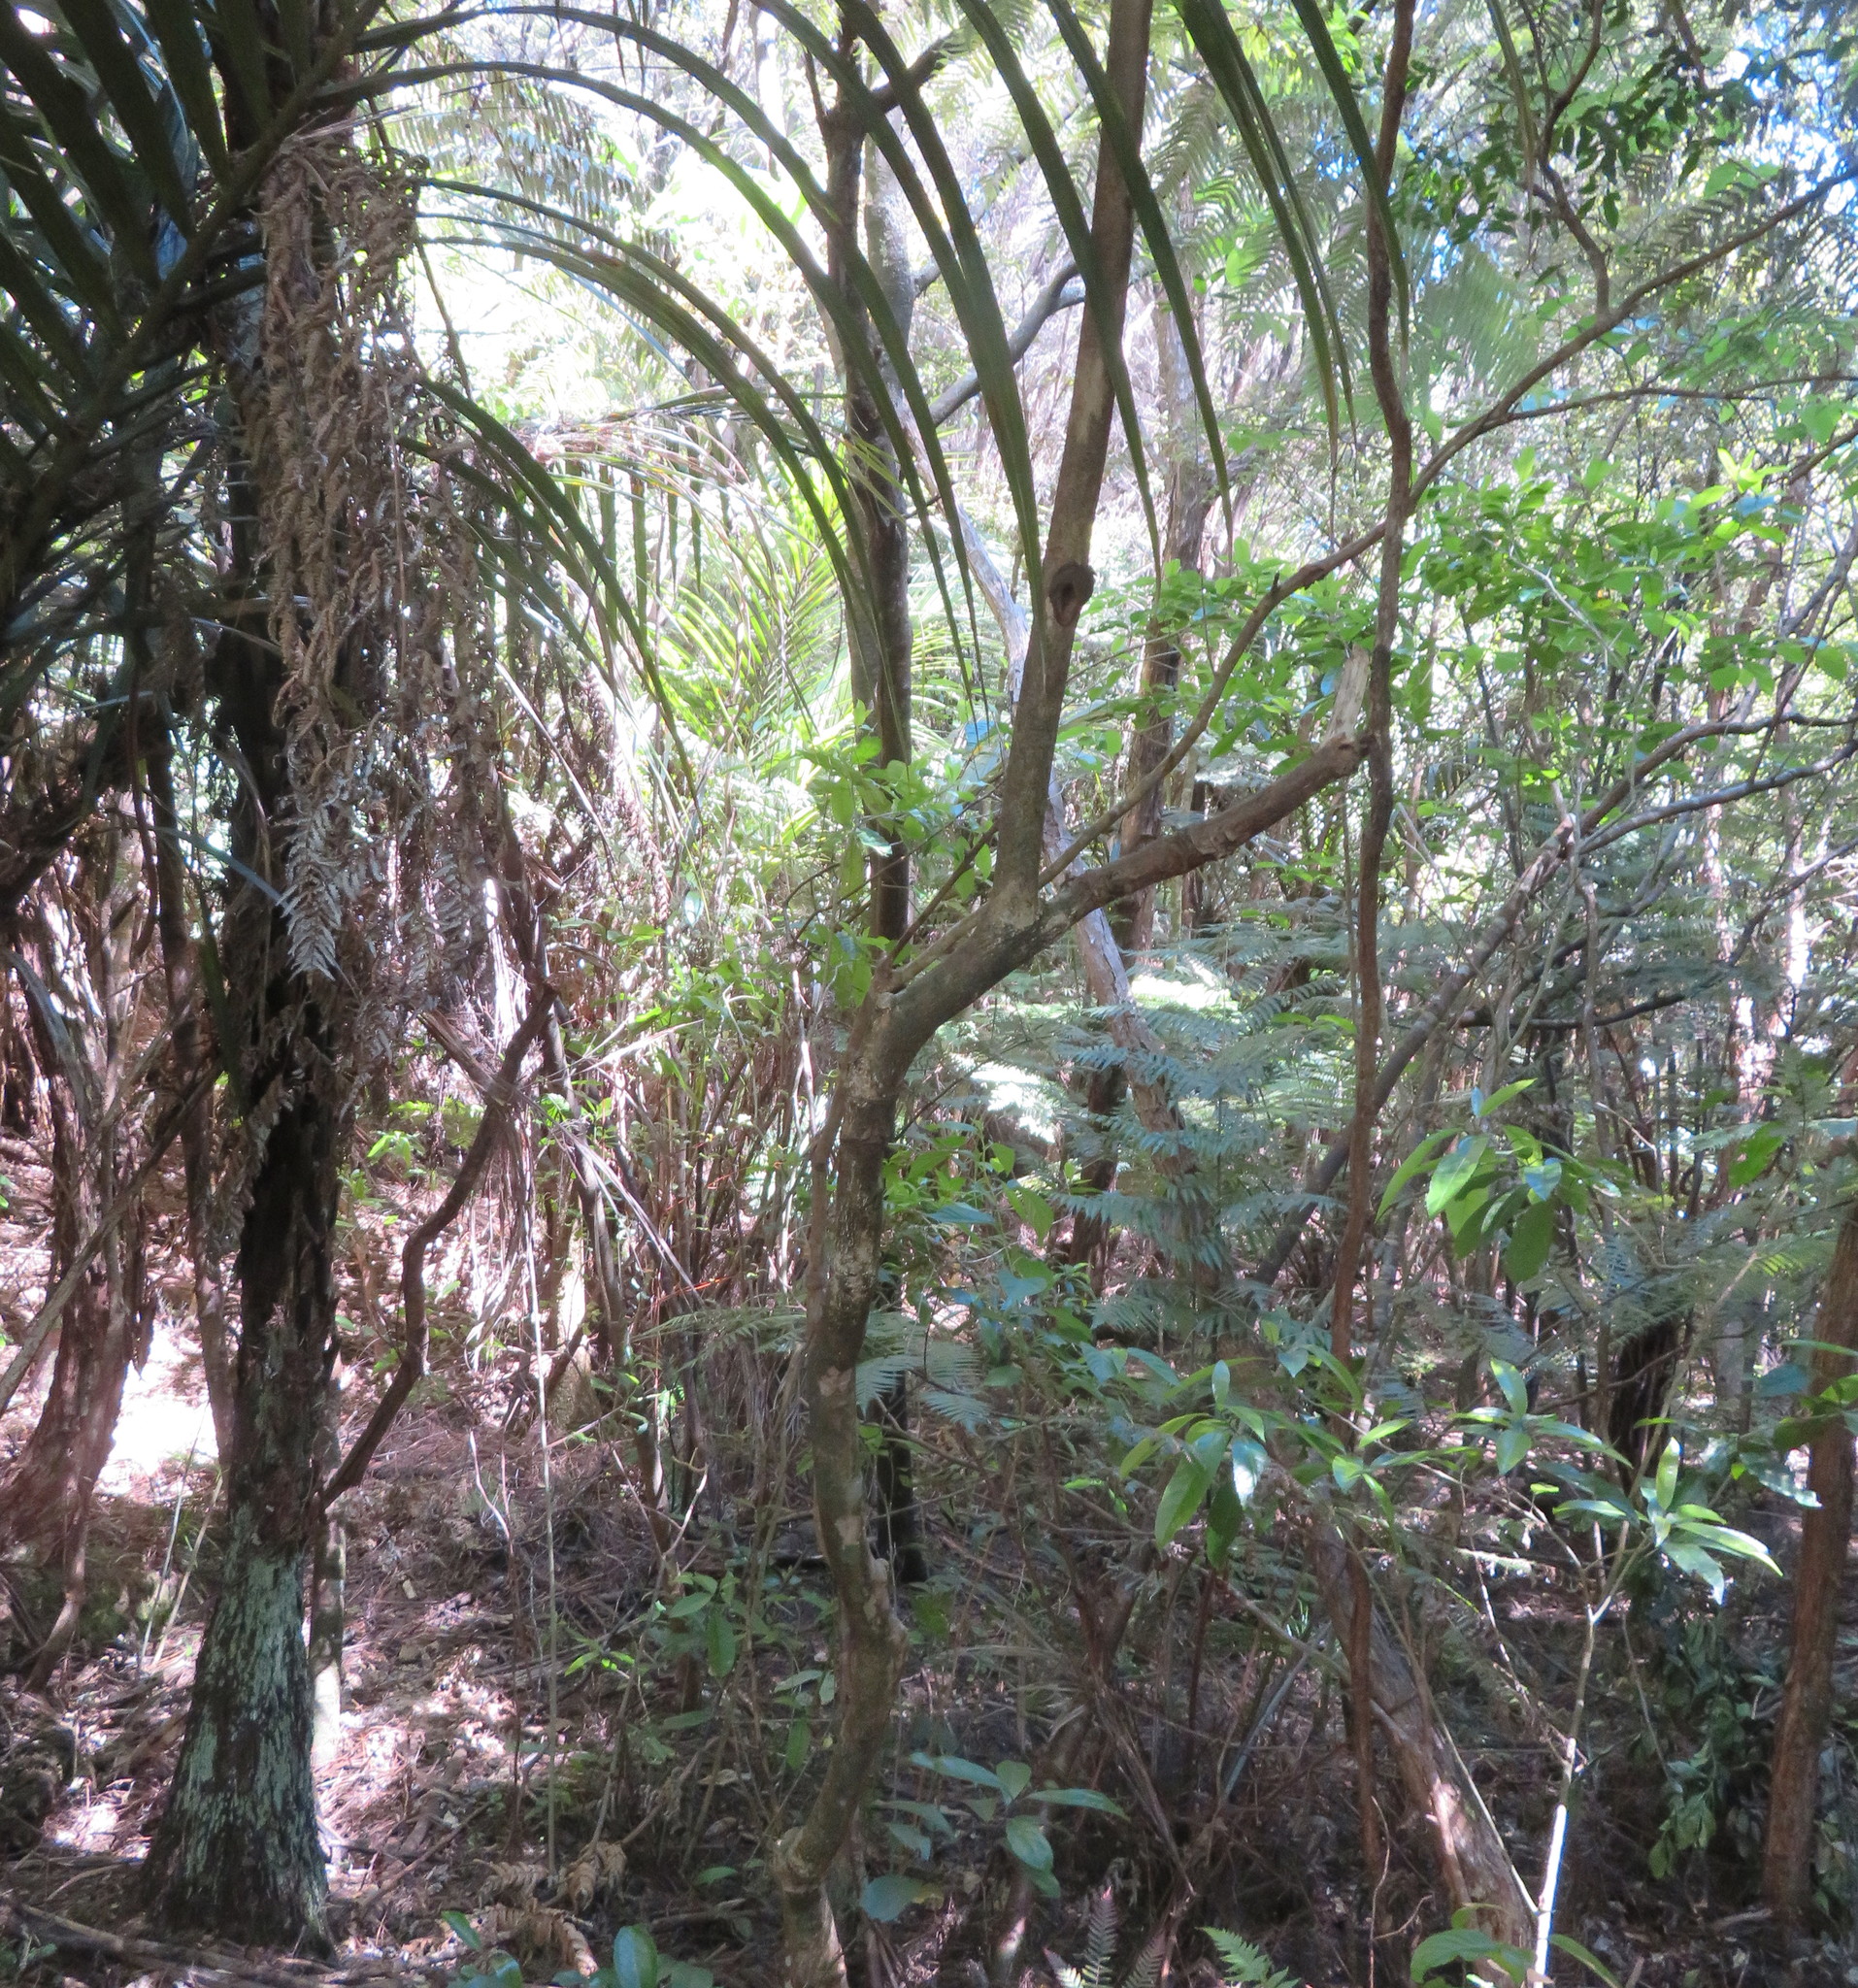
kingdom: Plantae
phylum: Tracheophyta
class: Liliopsida
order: Arecales
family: Arecaceae
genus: Rhopalostylis
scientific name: Rhopalostylis sapida
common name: Feather-duster palm
